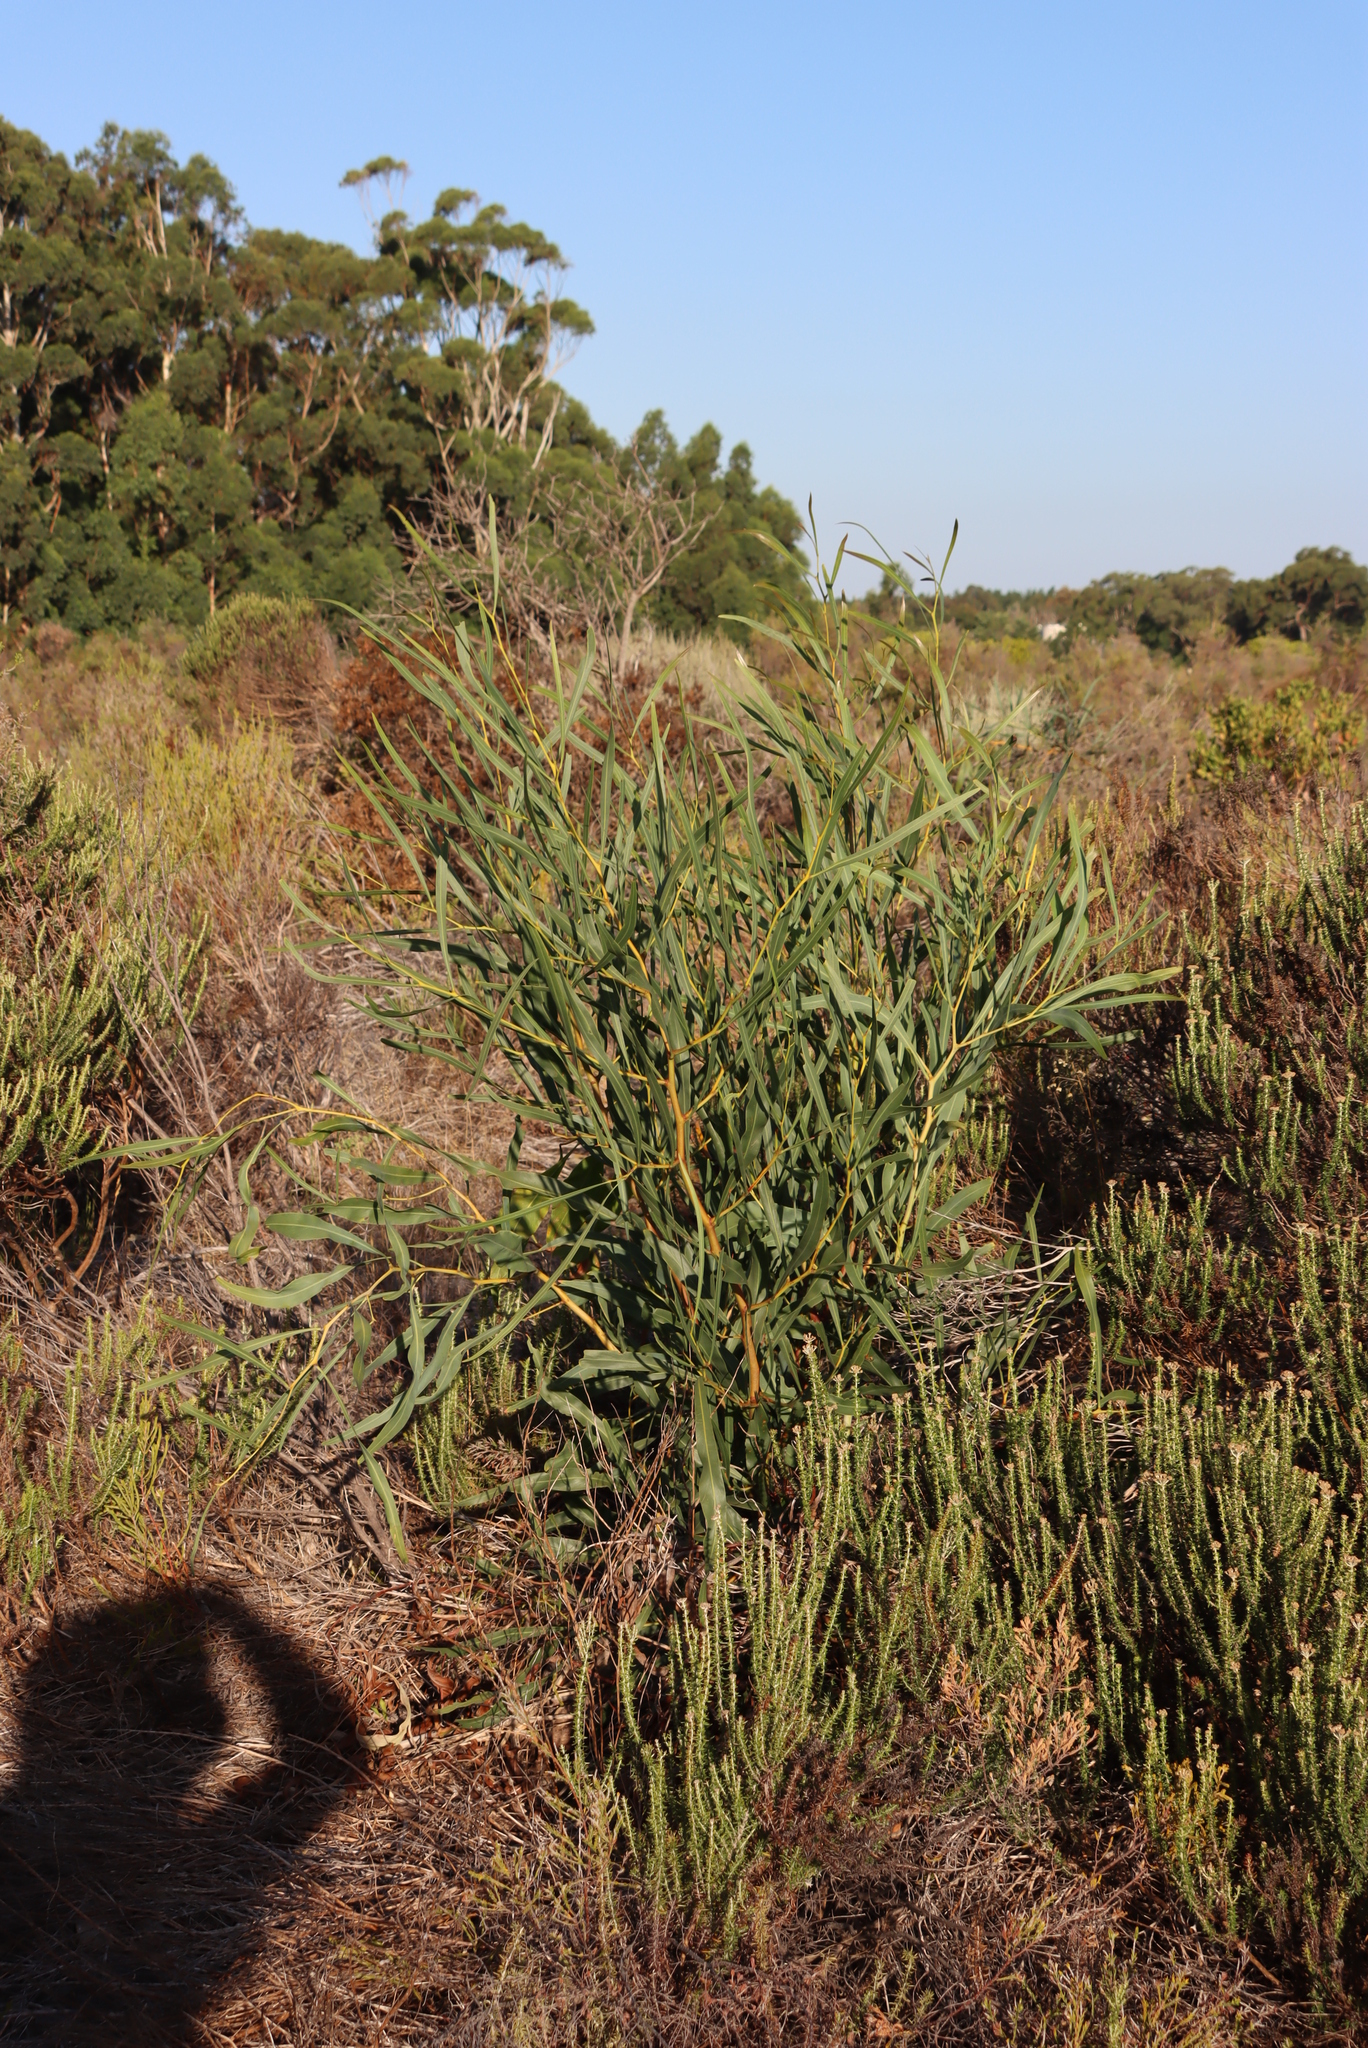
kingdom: Plantae
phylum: Tracheophyta
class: Magnoliopsida
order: Fabales
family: Fabaceae
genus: Acacia
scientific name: Acacia saligna
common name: Orange wattle
